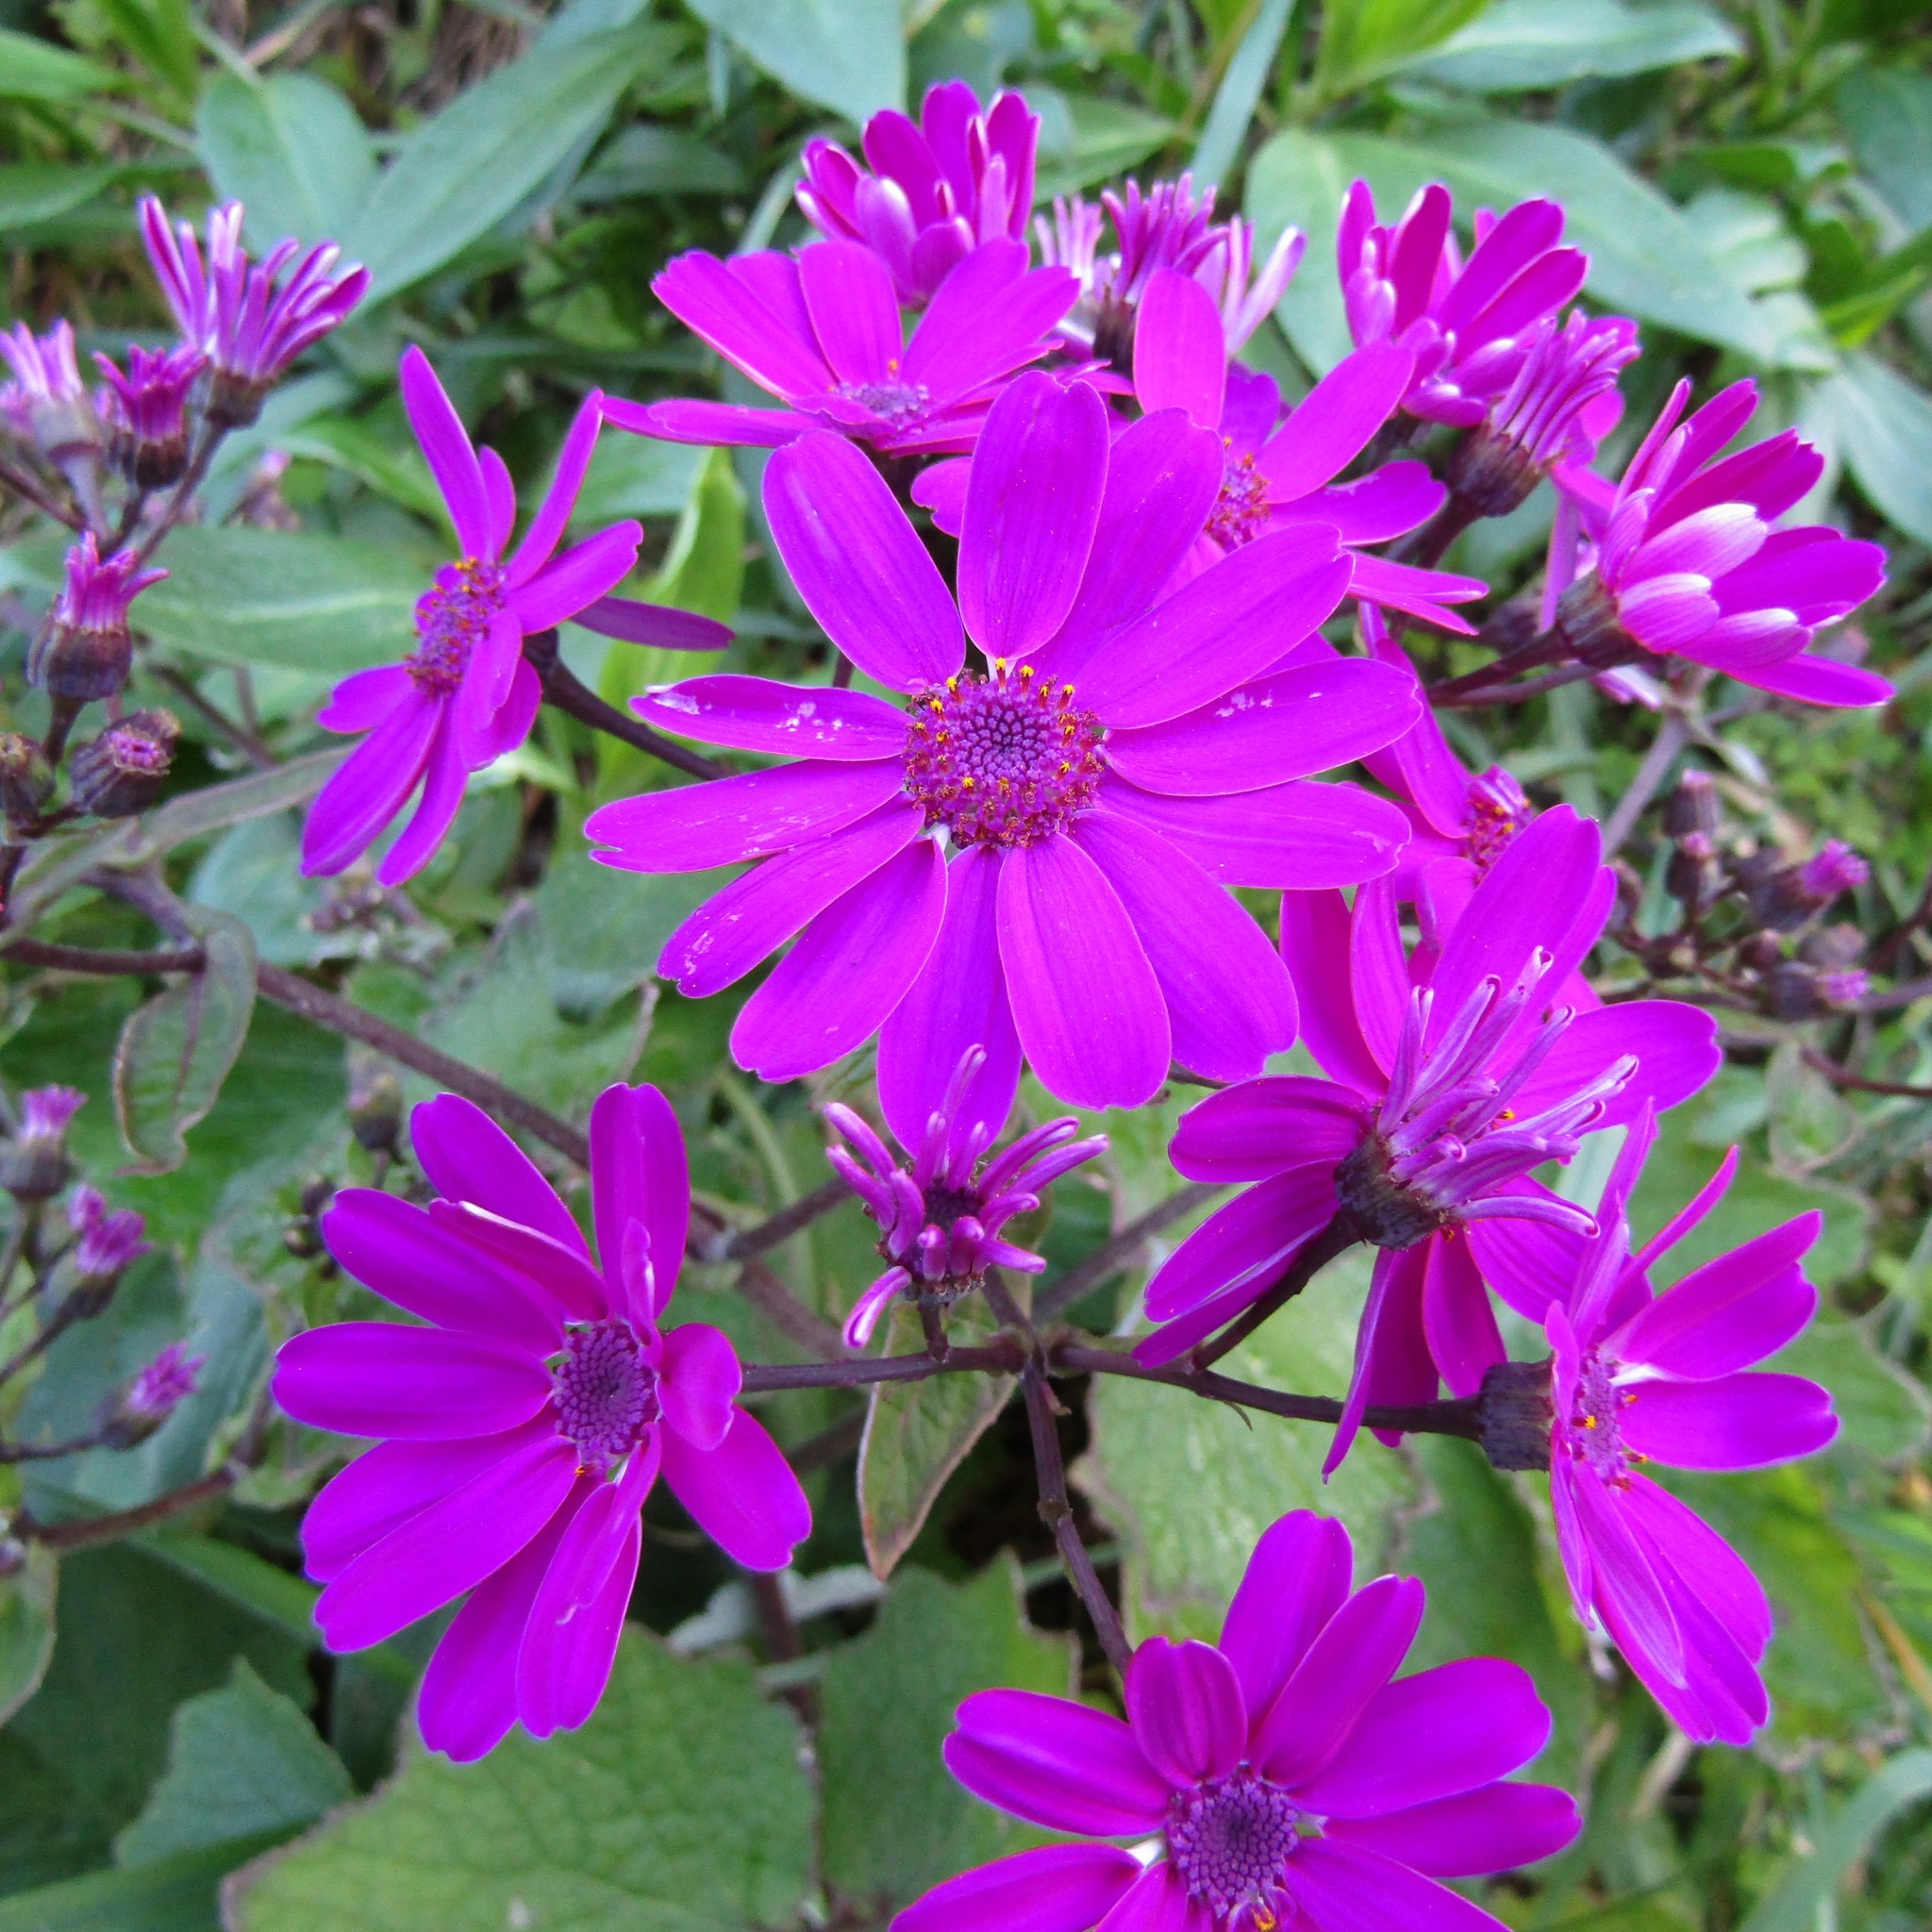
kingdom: Plantae
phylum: Tracheophyta
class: Magnoliopsida
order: Asterales
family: Asteraceae
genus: Pericallis
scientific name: Pericallis hybrida
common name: Cineraria
